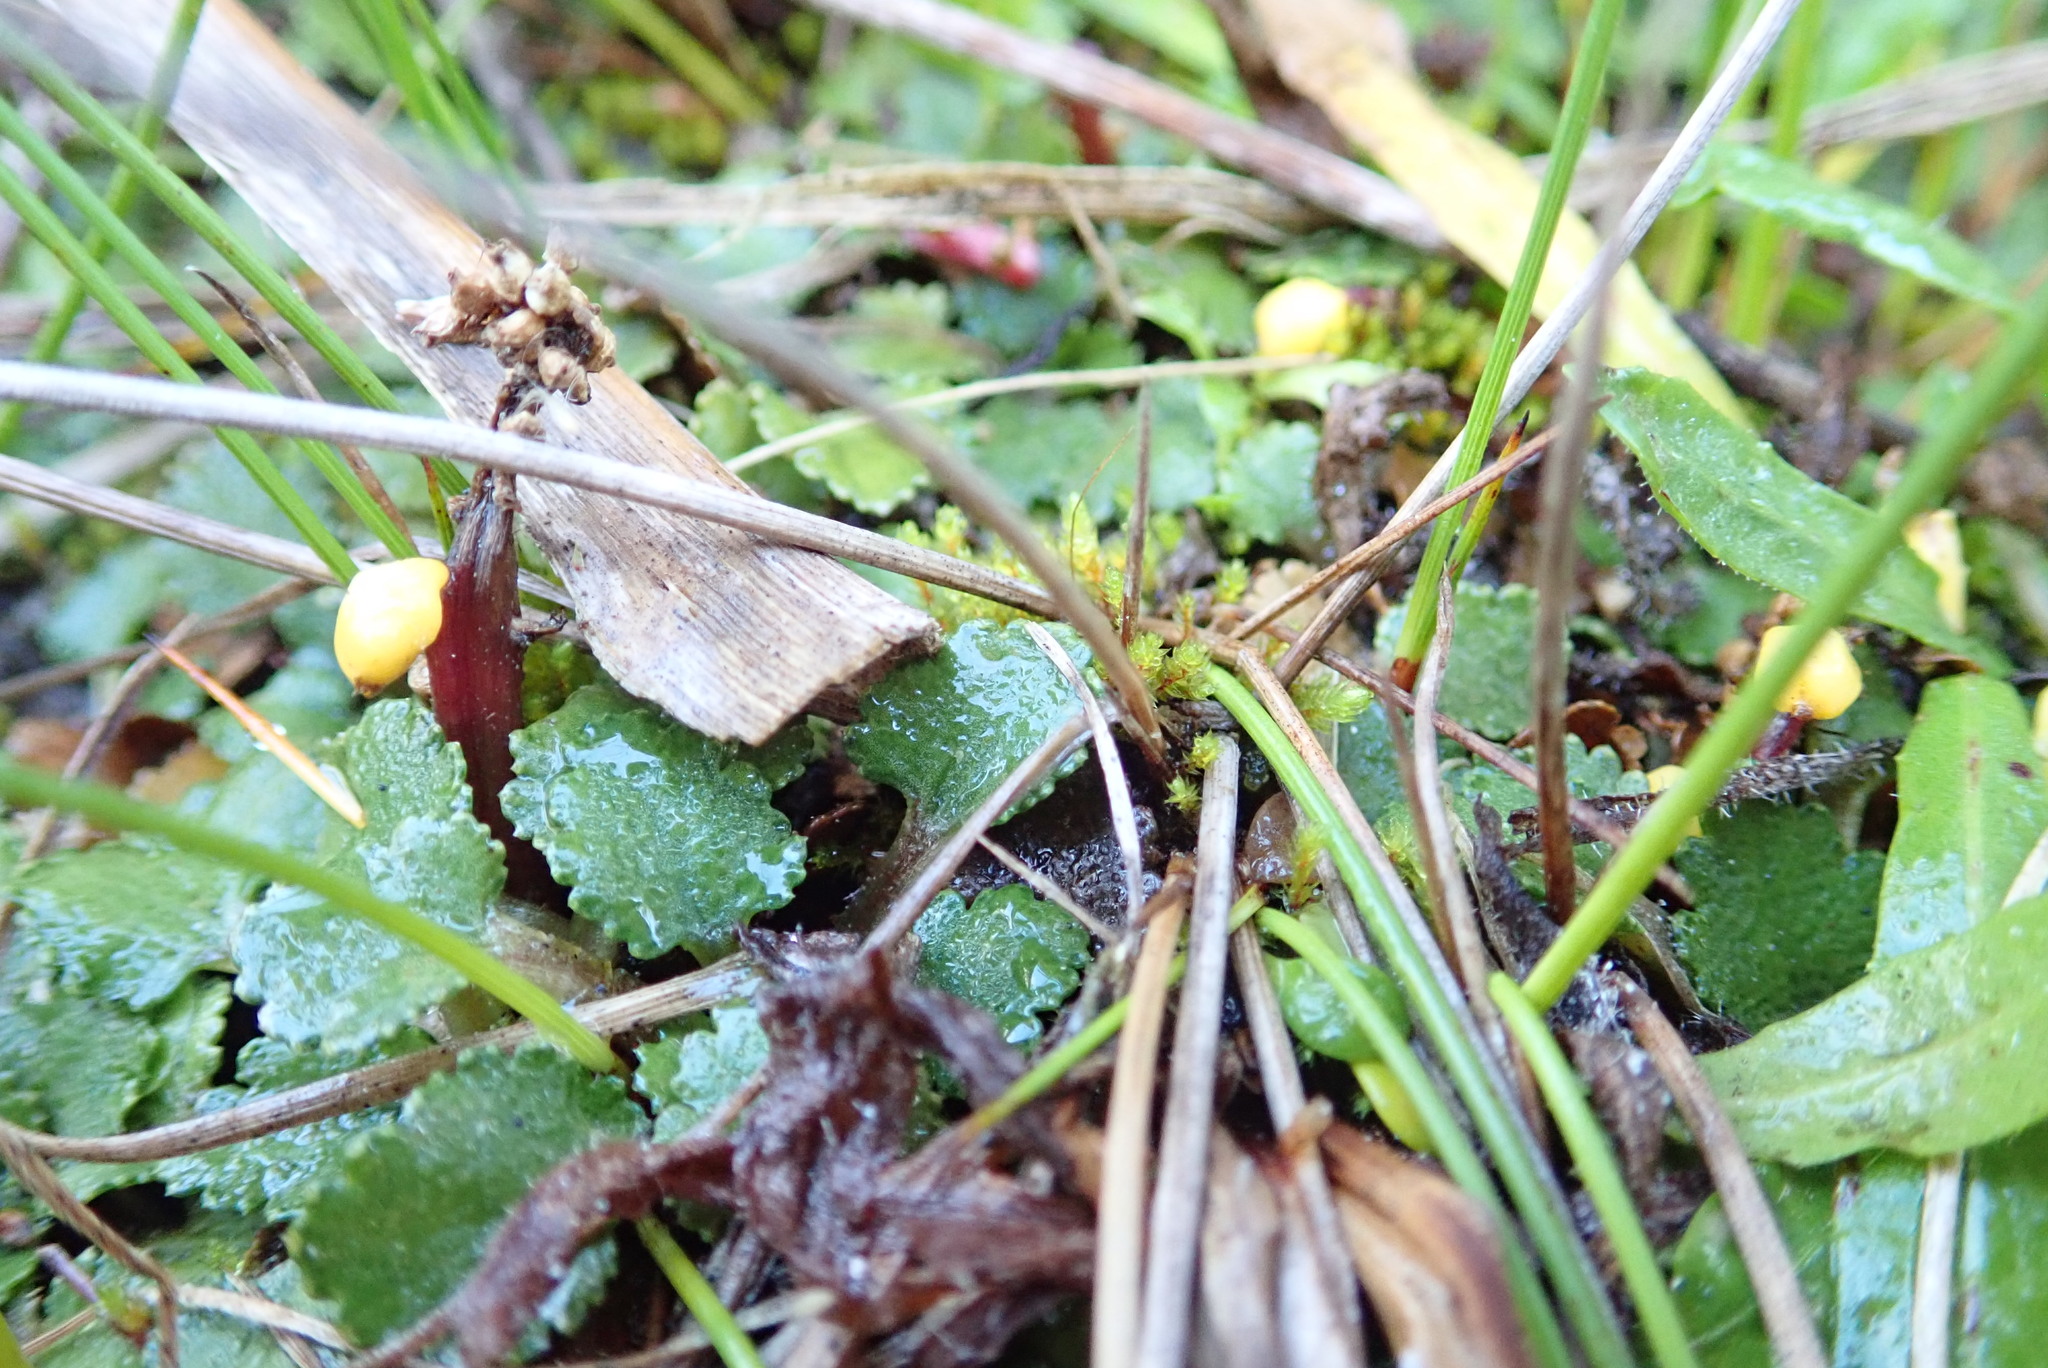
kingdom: Plantae
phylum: Tracheophyta
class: Magnoliopsida
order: Gunnerales
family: Gunneraceae
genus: Gunnera
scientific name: Gunnera dentata
